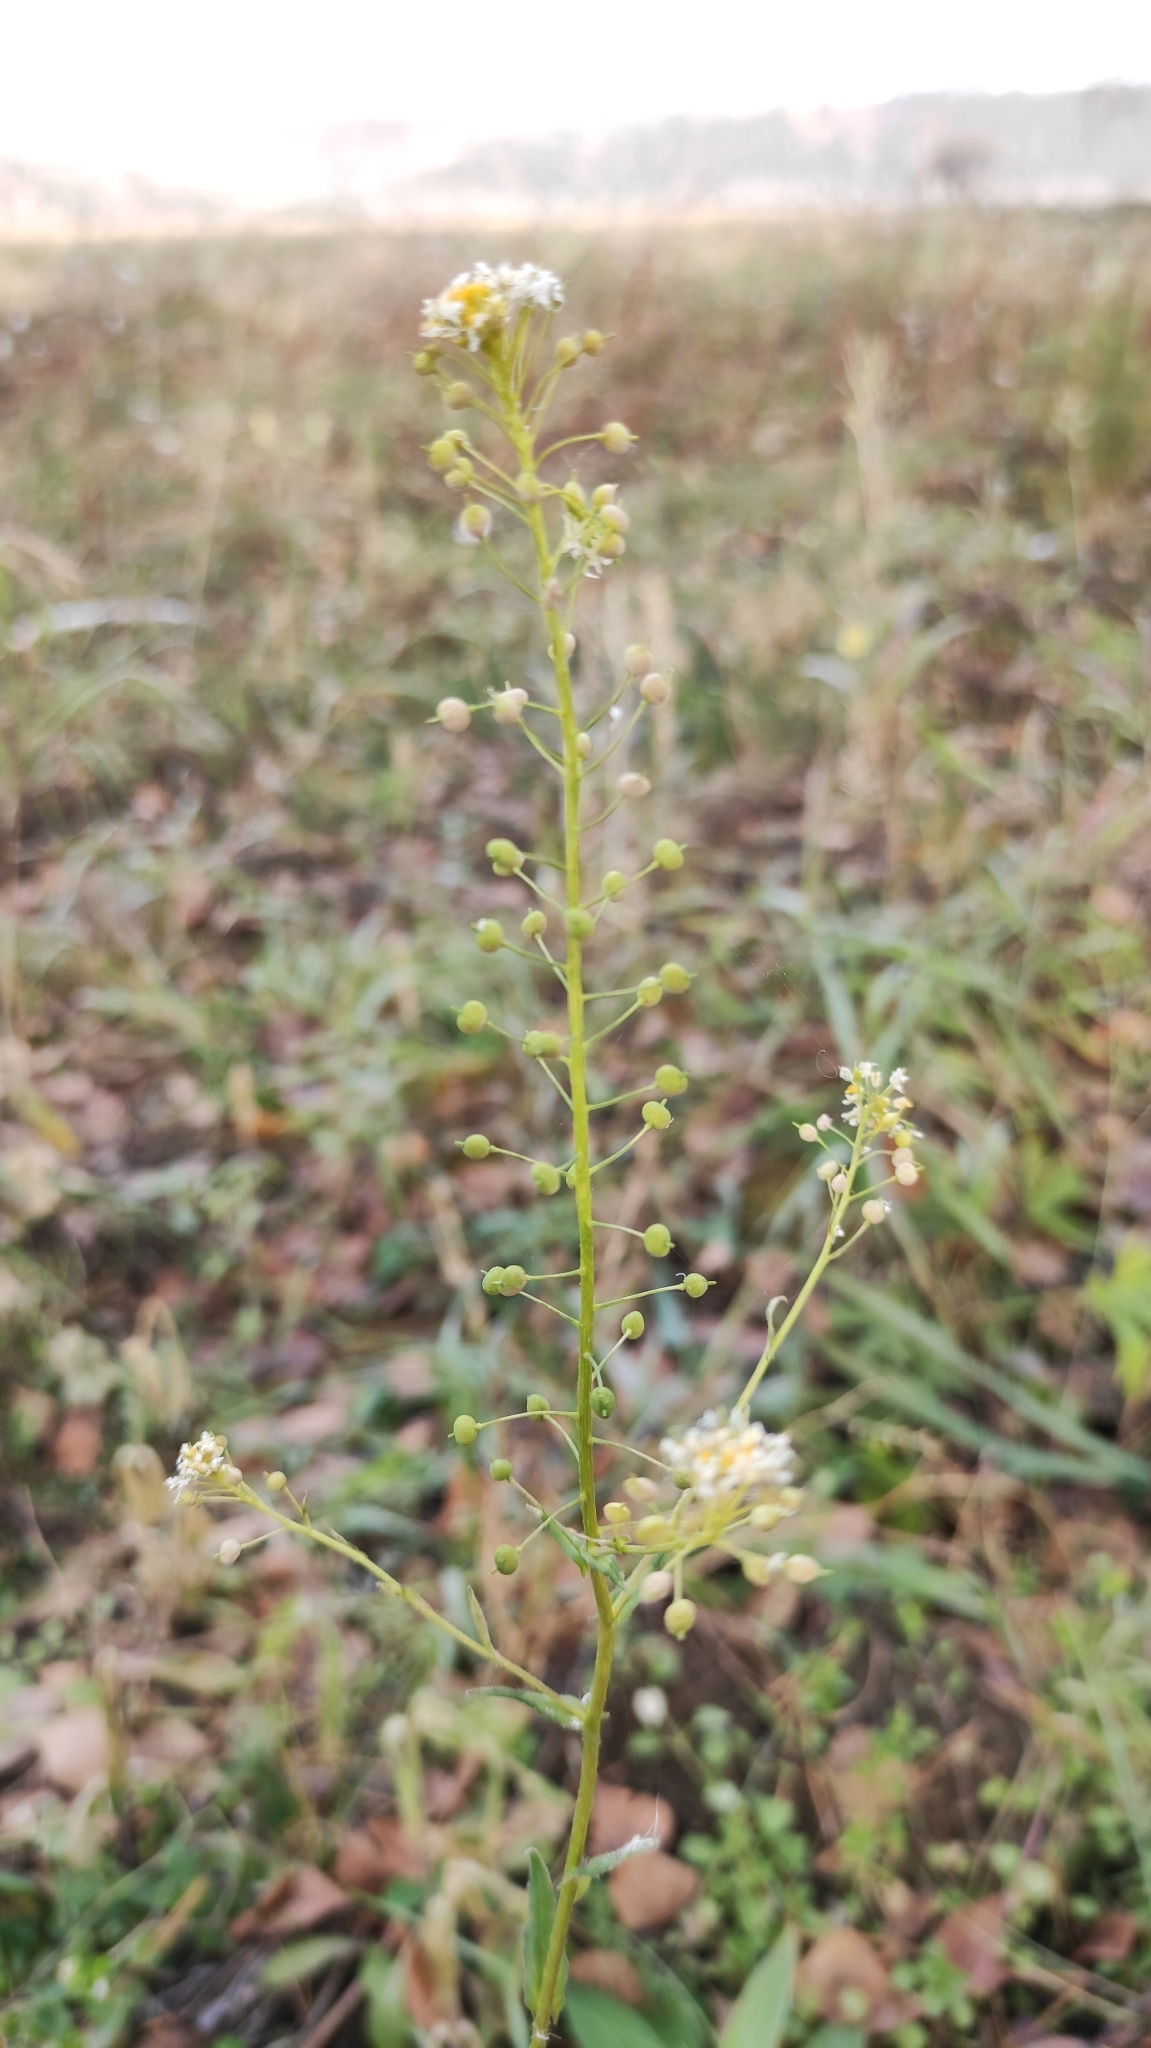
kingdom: Plantae
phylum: Tracheophyta
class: Magnoliopsida
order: Brassicales
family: Brassicaceae
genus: Neslia
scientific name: Neslia paniculata
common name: Ball mustard
